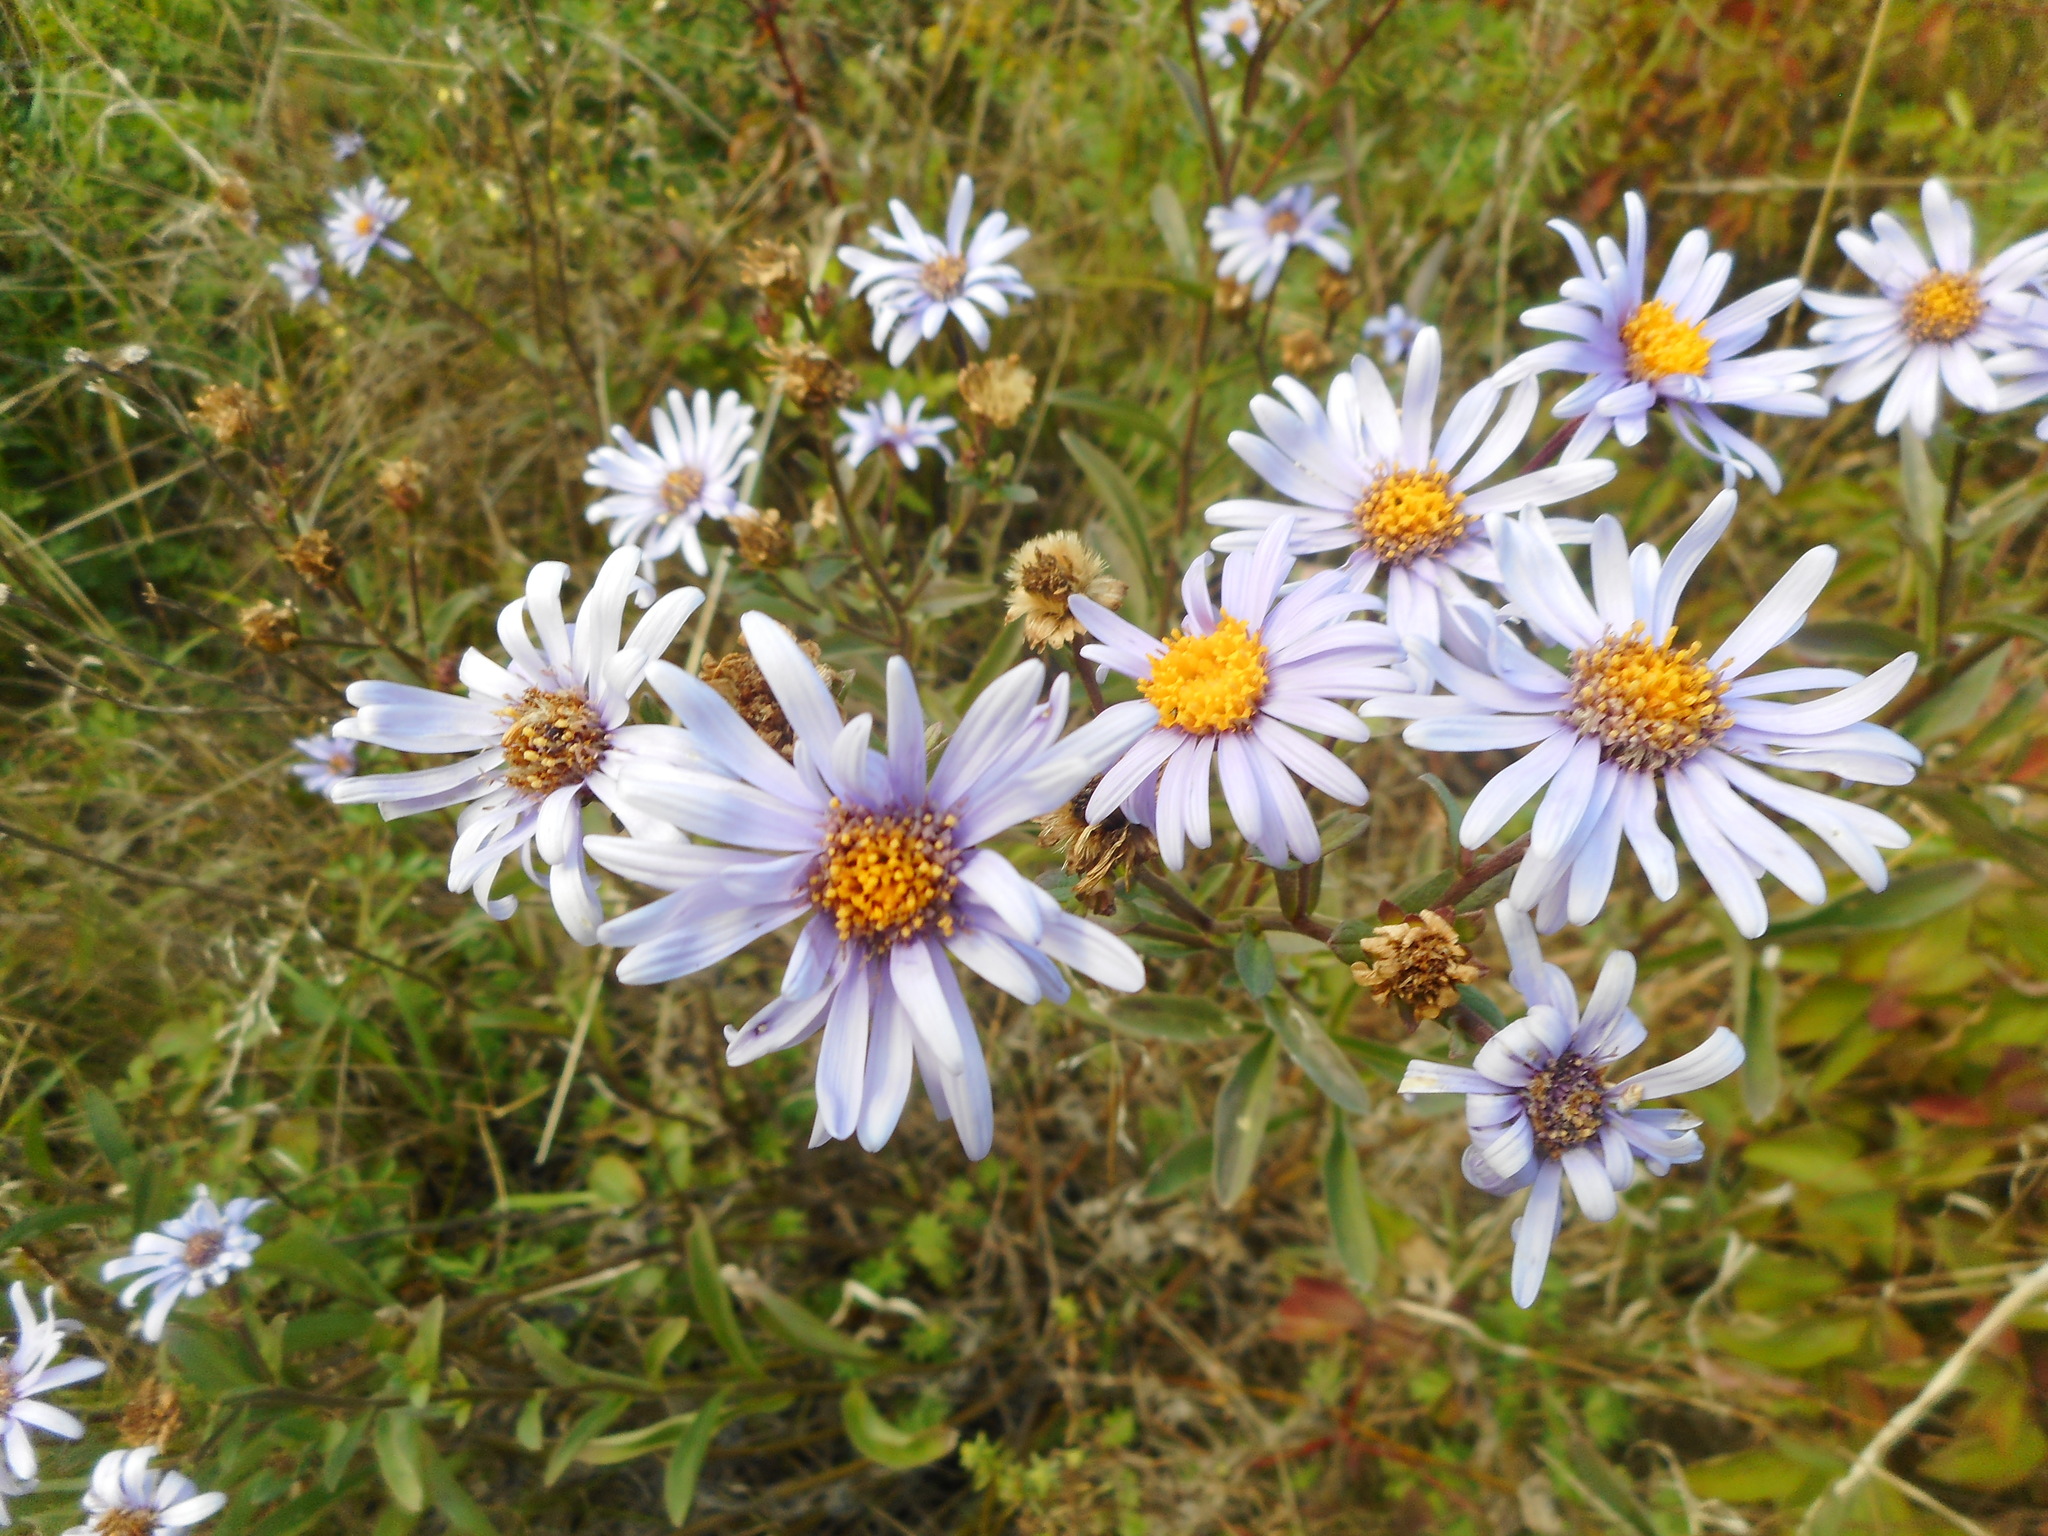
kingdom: Plantae
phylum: Tracheophyta
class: Magnoliopsida
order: Asterales
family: Asteraceae
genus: Aster
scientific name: Aster amellus
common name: European michaelmas daisy
